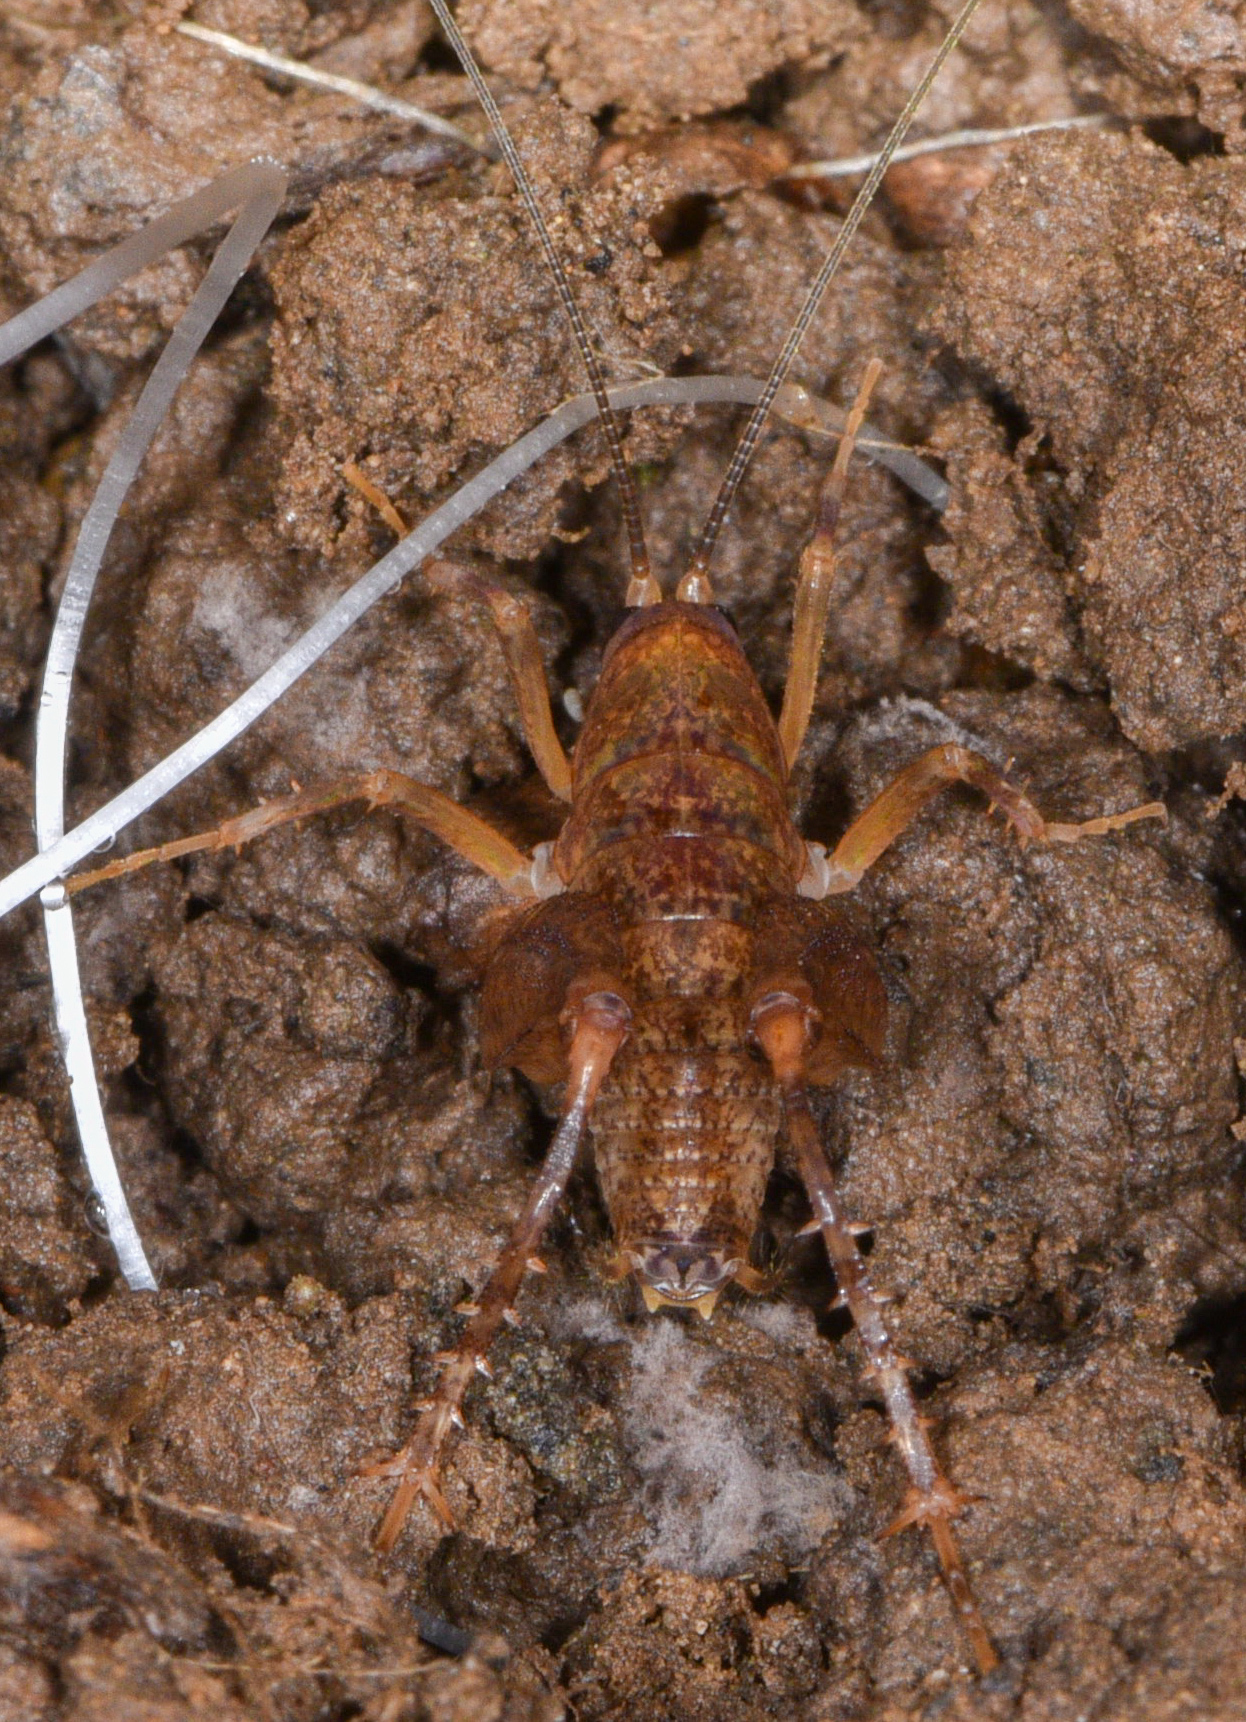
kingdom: Animalia
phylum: Arthropoda
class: Insecta
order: Orthoptera
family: Rhaphidophoridae
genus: Pristoceuthophilus
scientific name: Pristoceuthophilus pacificus
